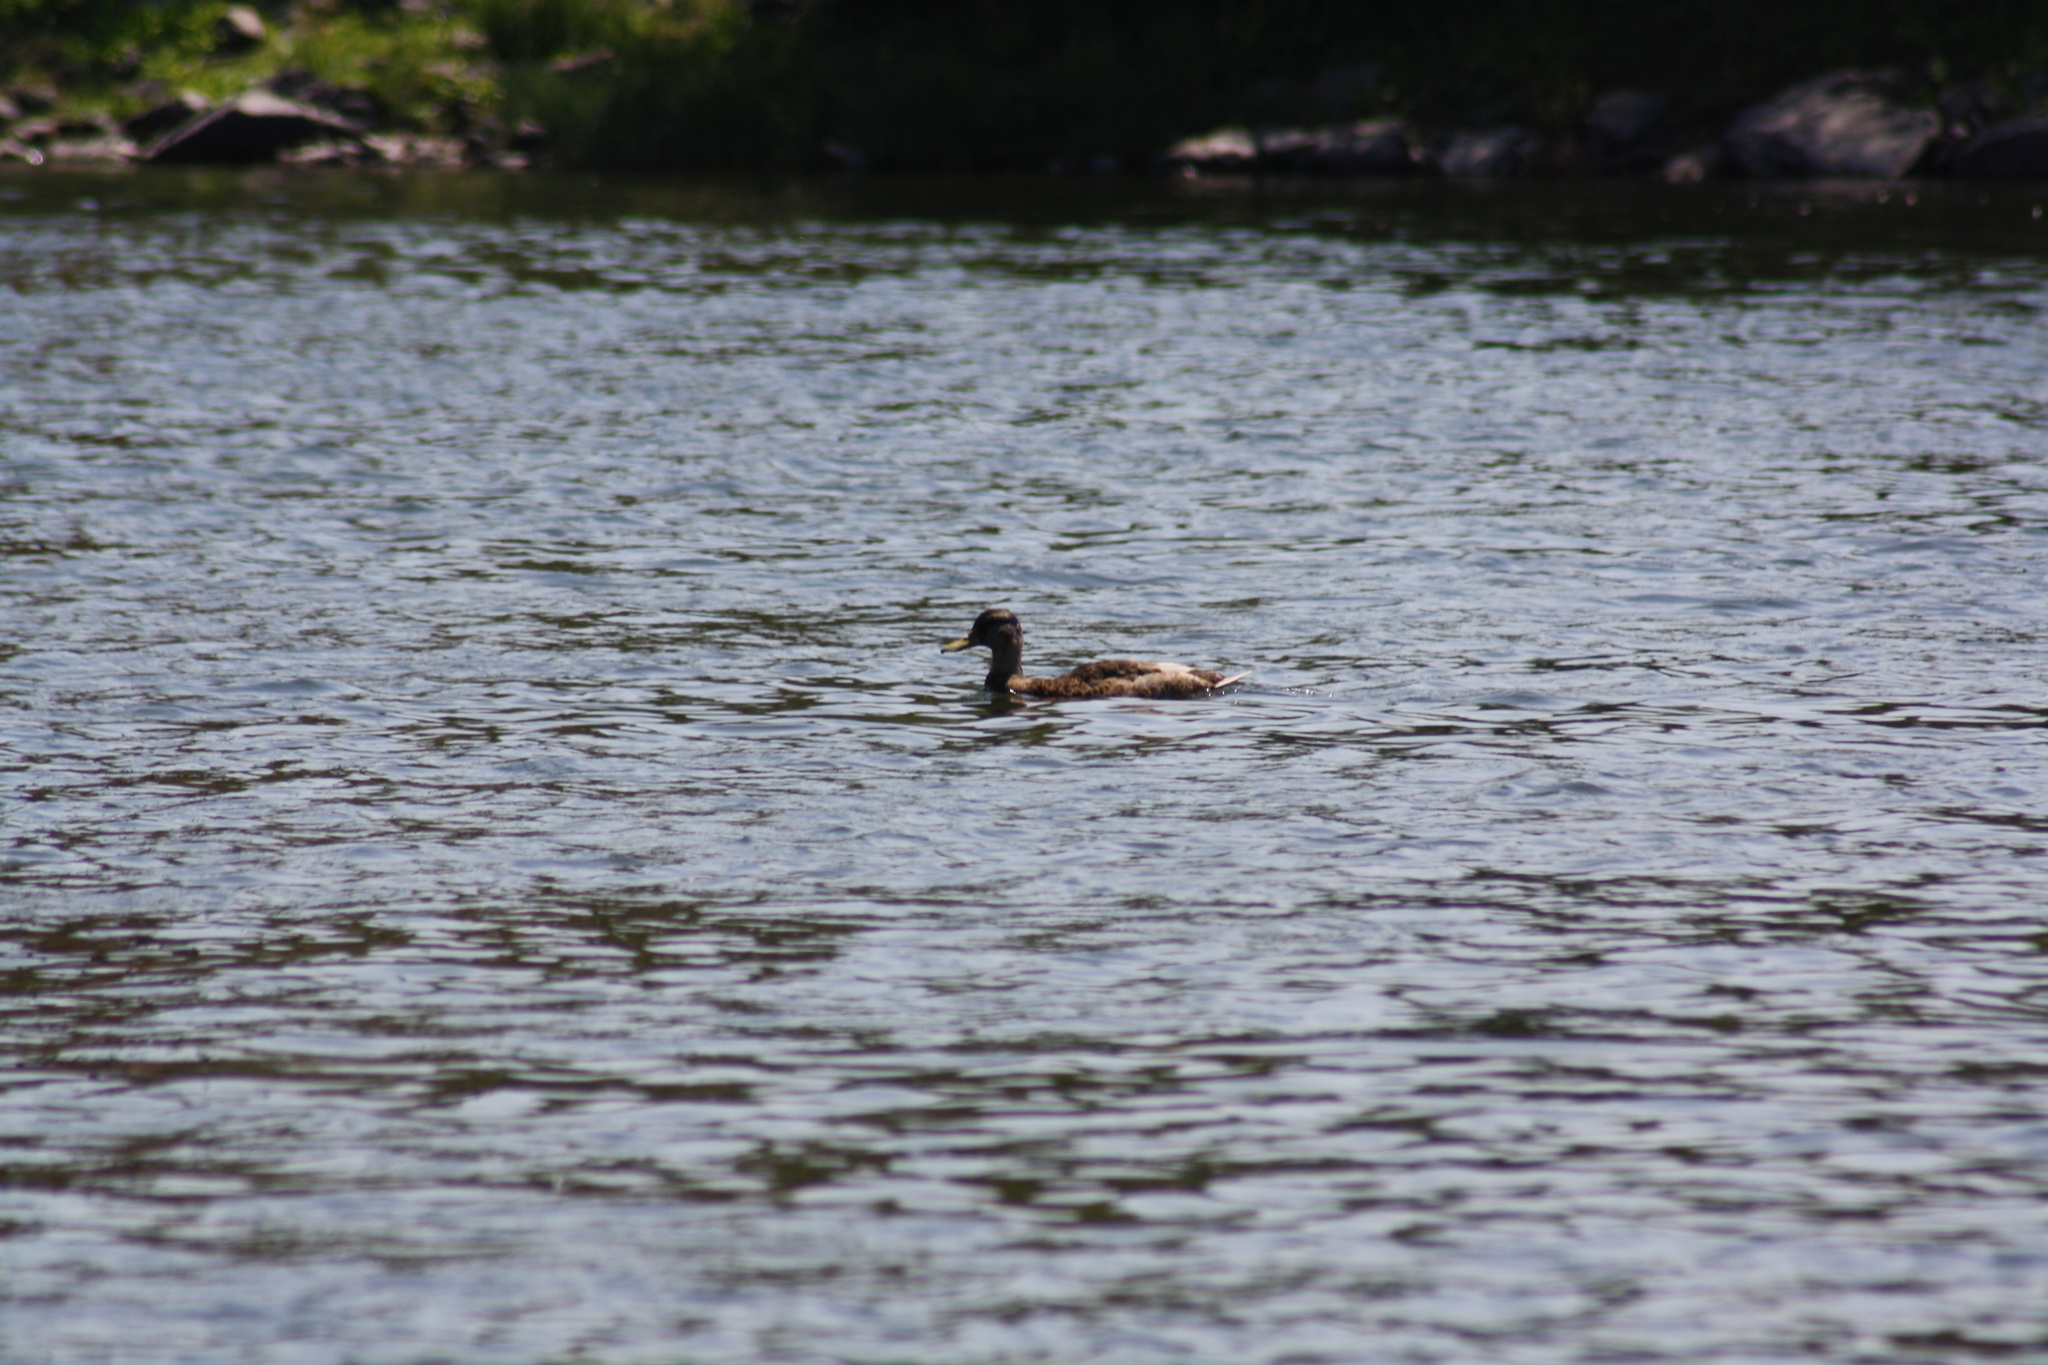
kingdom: Animalia
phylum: Chordata
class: Aves
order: Anseriformes
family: Anatidae
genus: Anas
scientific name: Anas platyrhynchos
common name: Mallard
